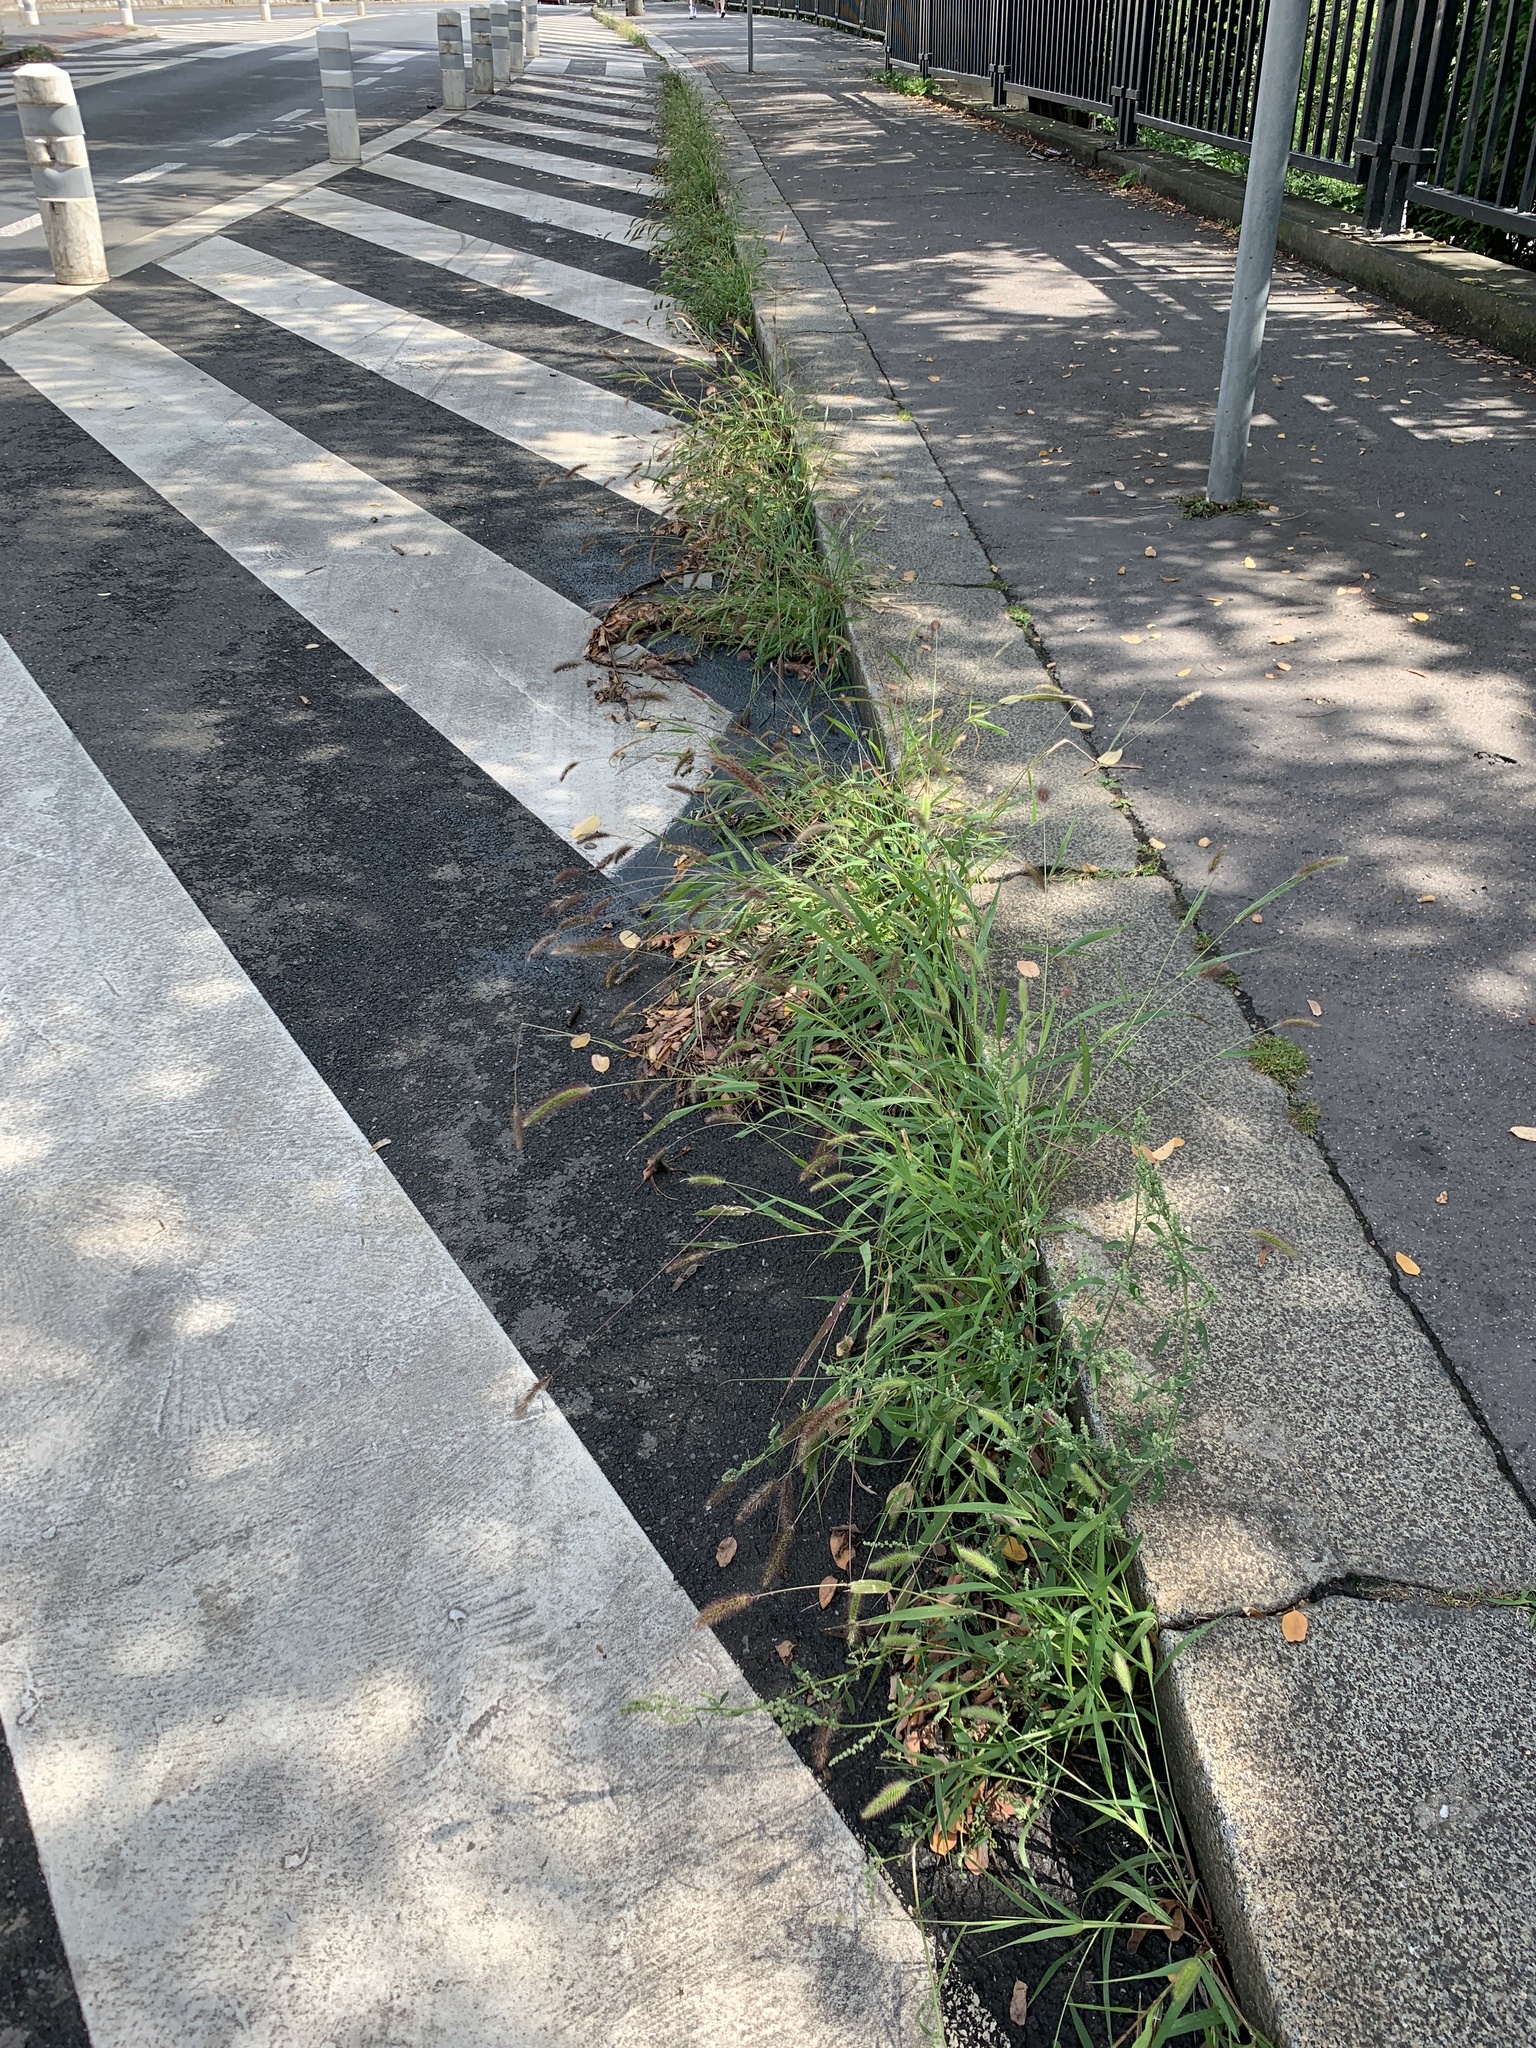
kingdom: Plantae
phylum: Tracheophyta
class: Liliopsida
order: Poales
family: Poaceae
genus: Setaria
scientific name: Setaria viridis
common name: Green bristlegrass
